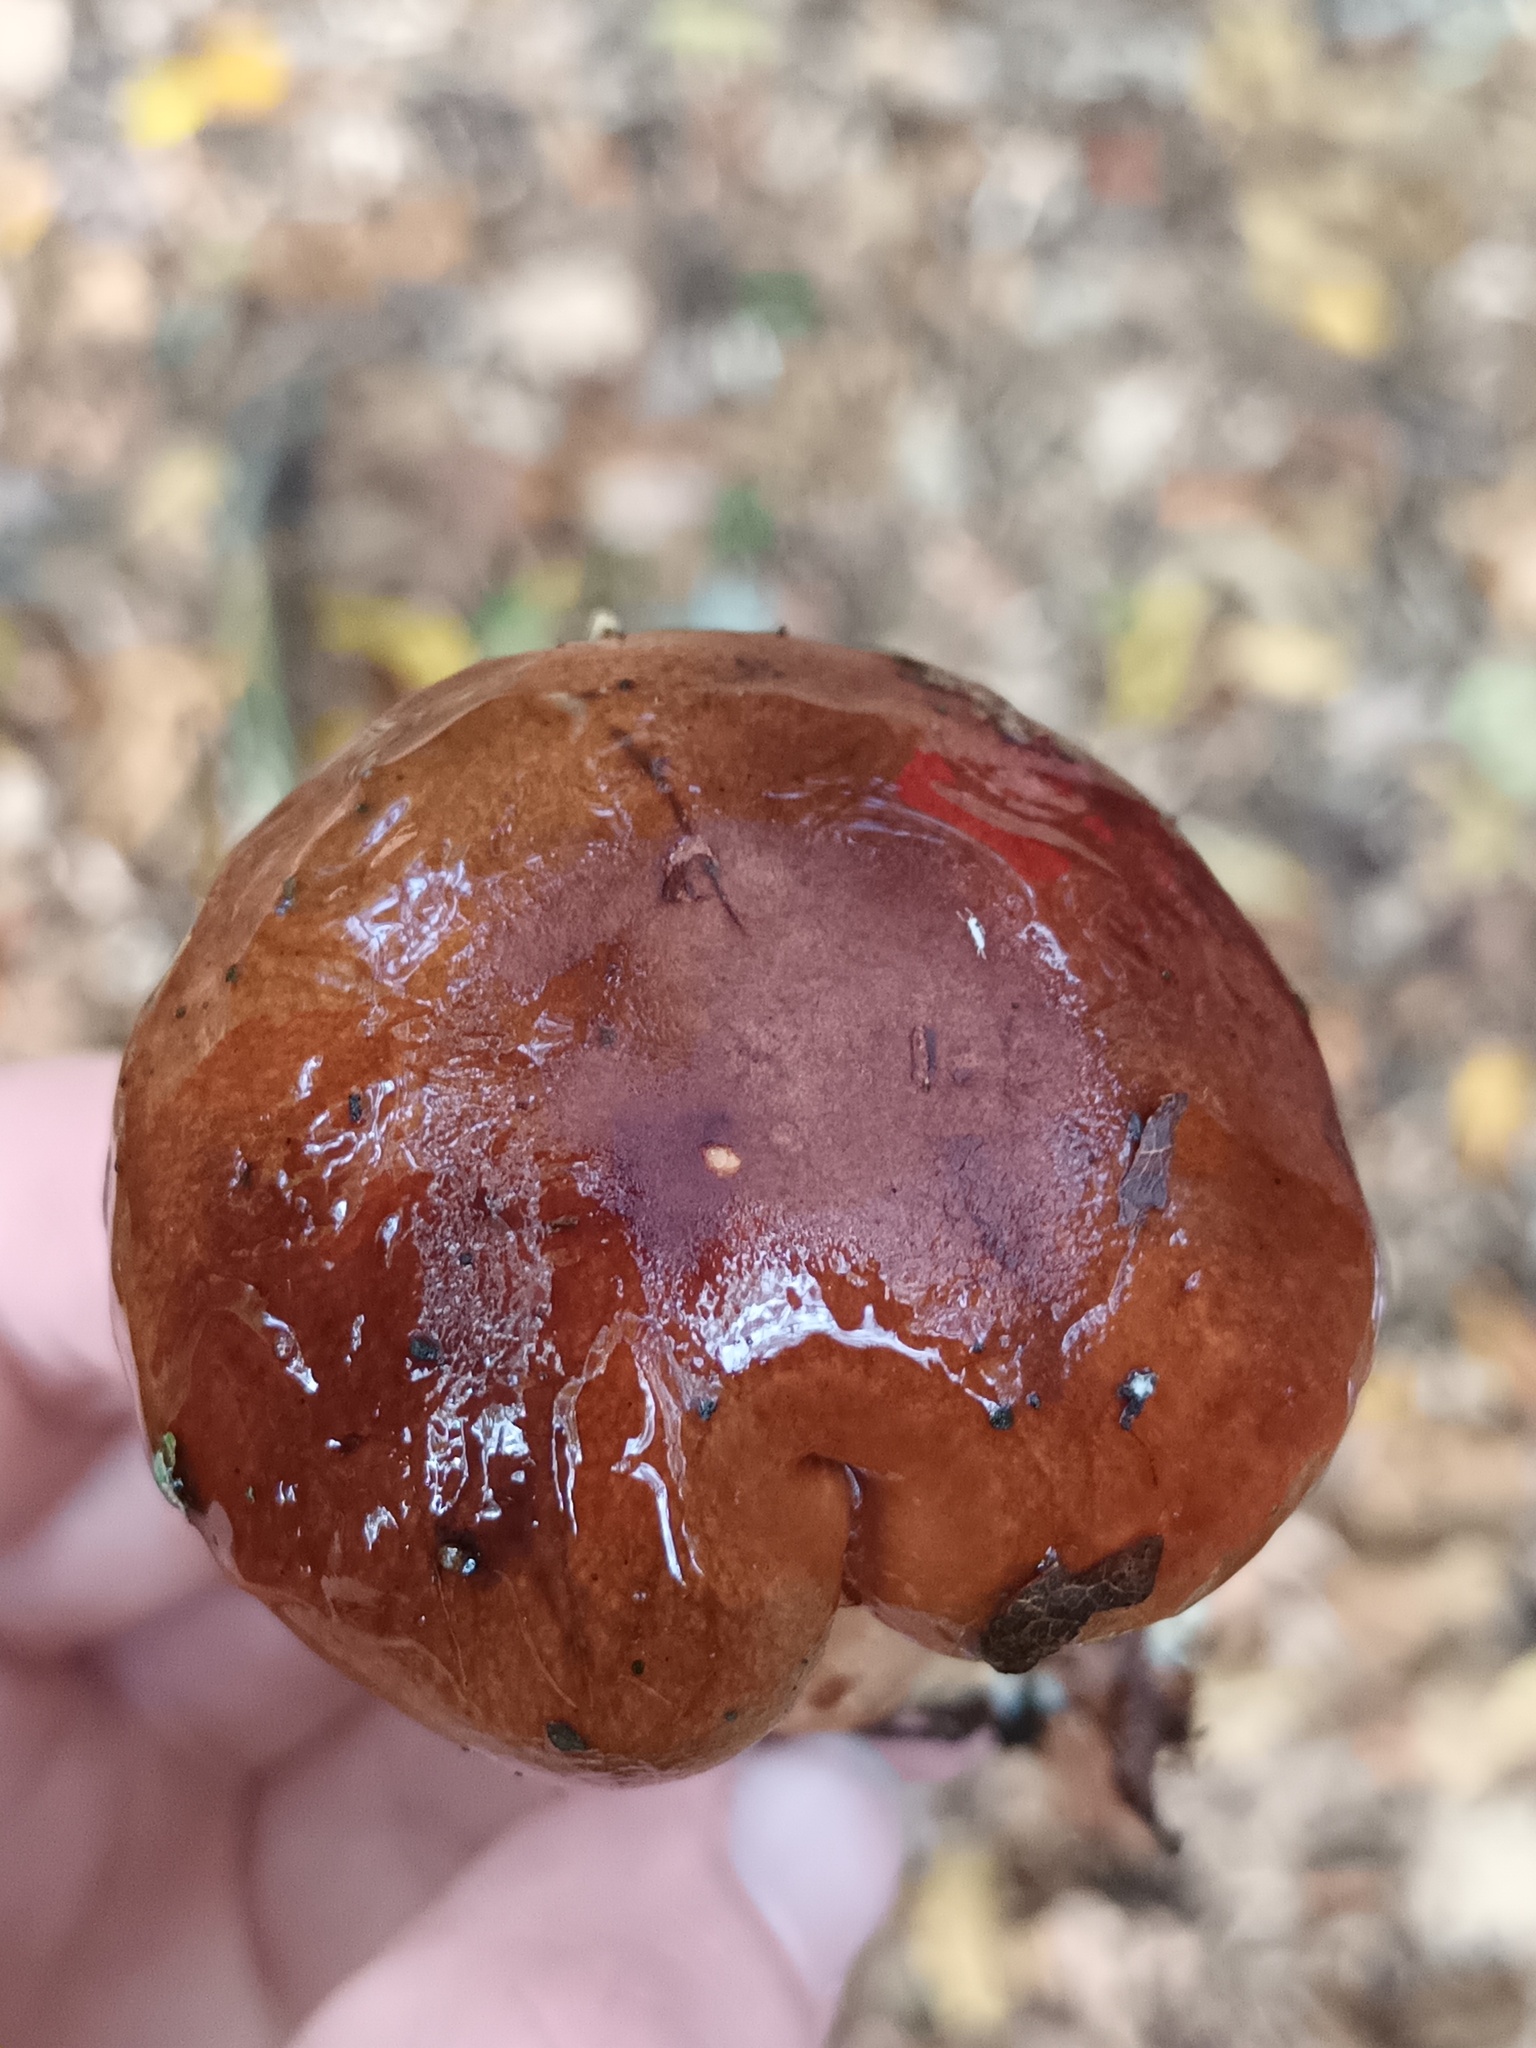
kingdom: Fungi
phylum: Basidiomycota
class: Agaricomycetes
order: Agaricales
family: Tricholomataceae
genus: Tricholoma
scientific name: Tricholoma ustale
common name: Burnt knight
